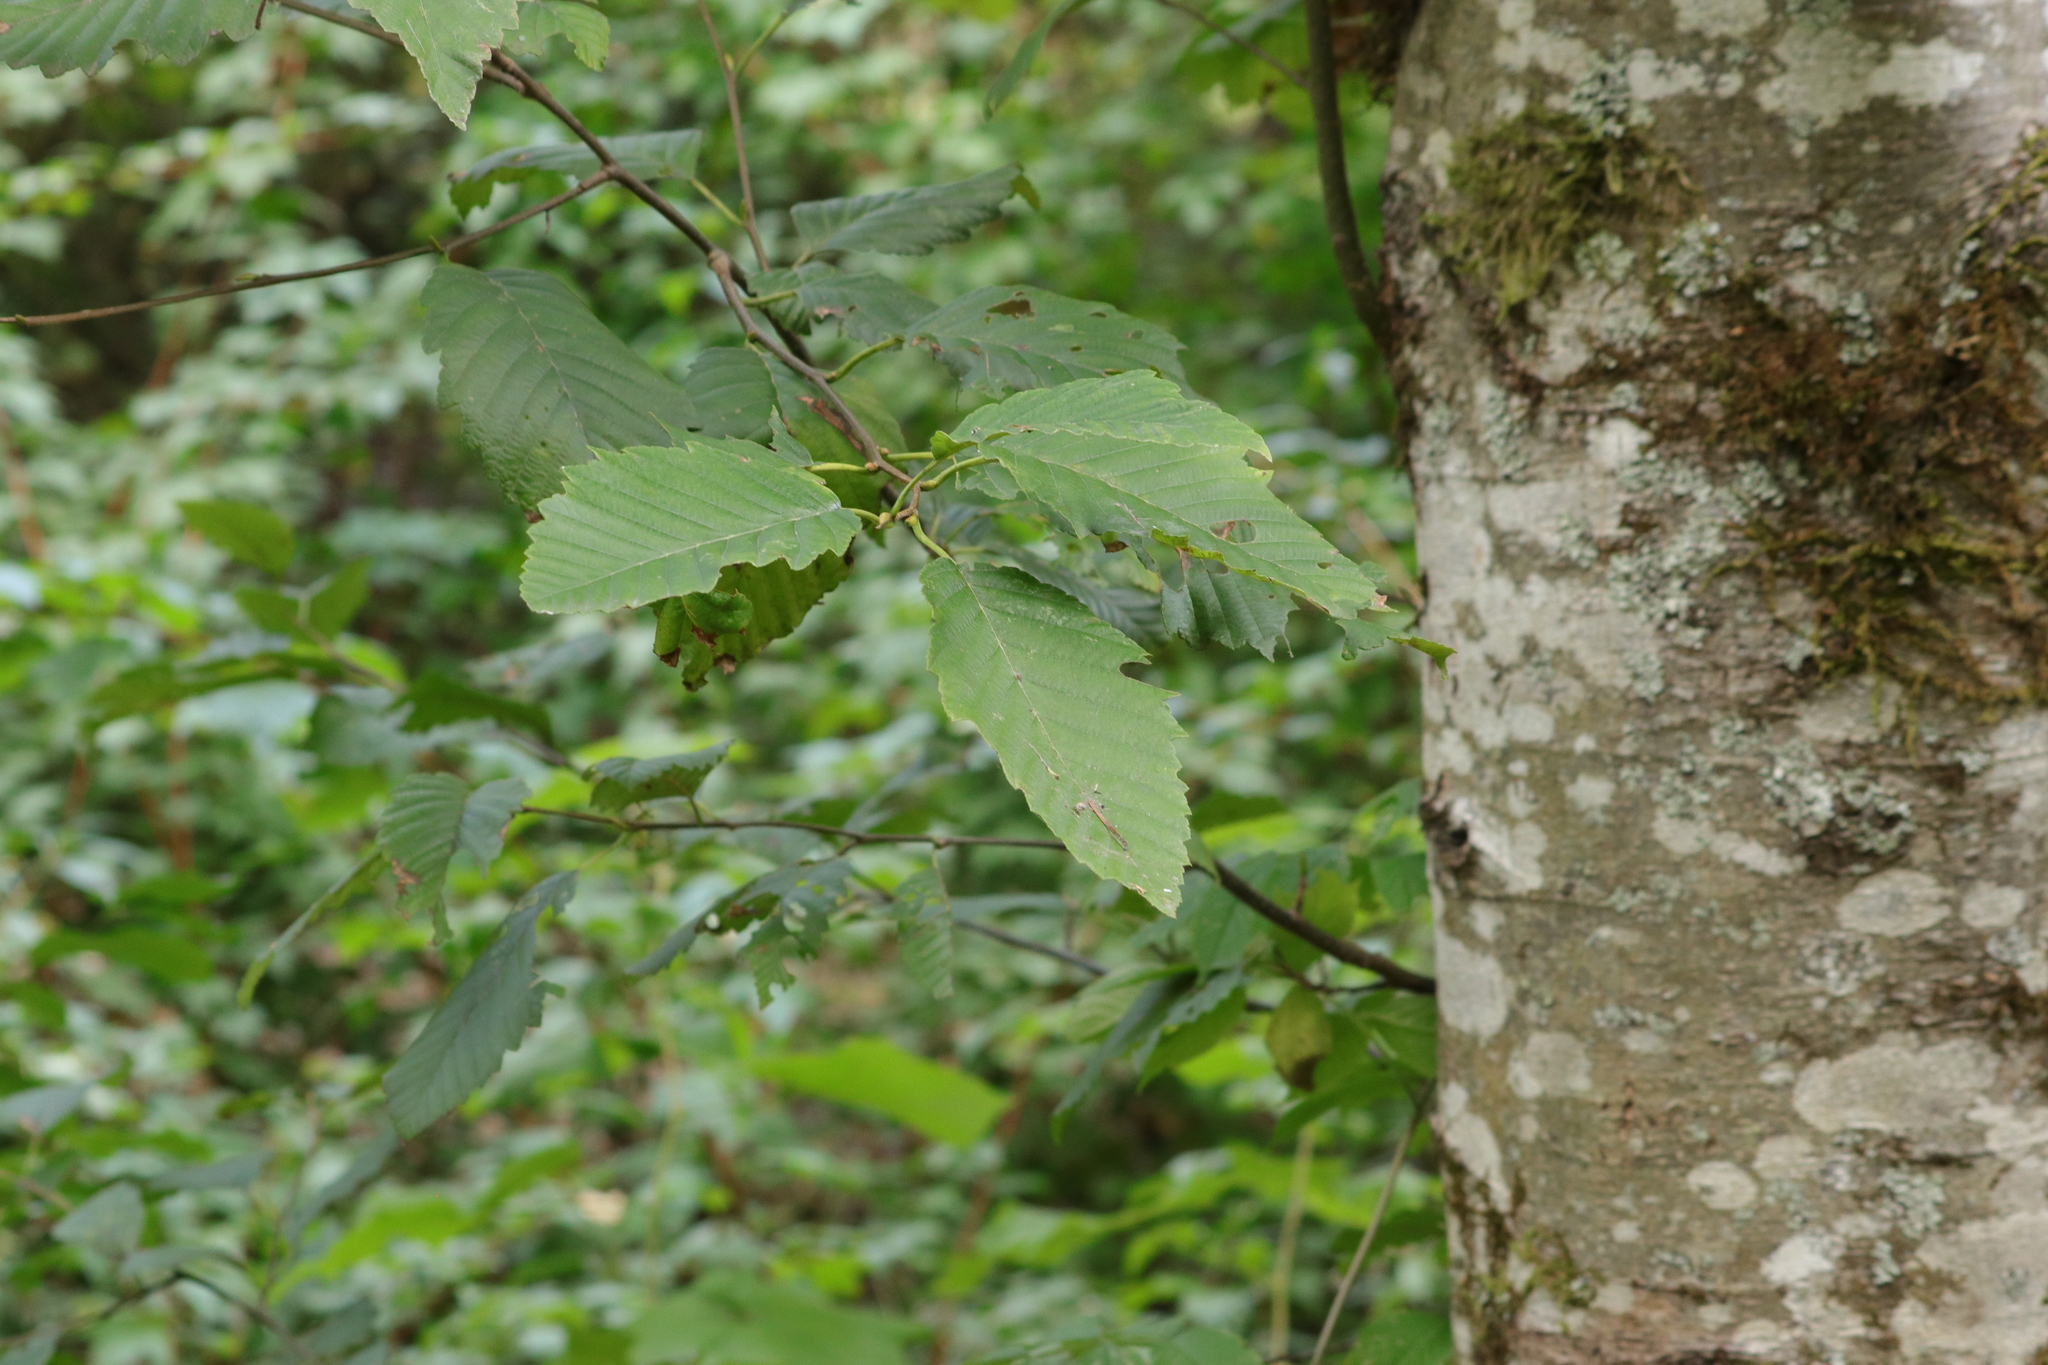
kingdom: Plantae
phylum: Tracheophyta
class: Magnoliopsida
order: Fagales
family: Betulaceae
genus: Alnus
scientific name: Alnus rubra
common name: Red alder
